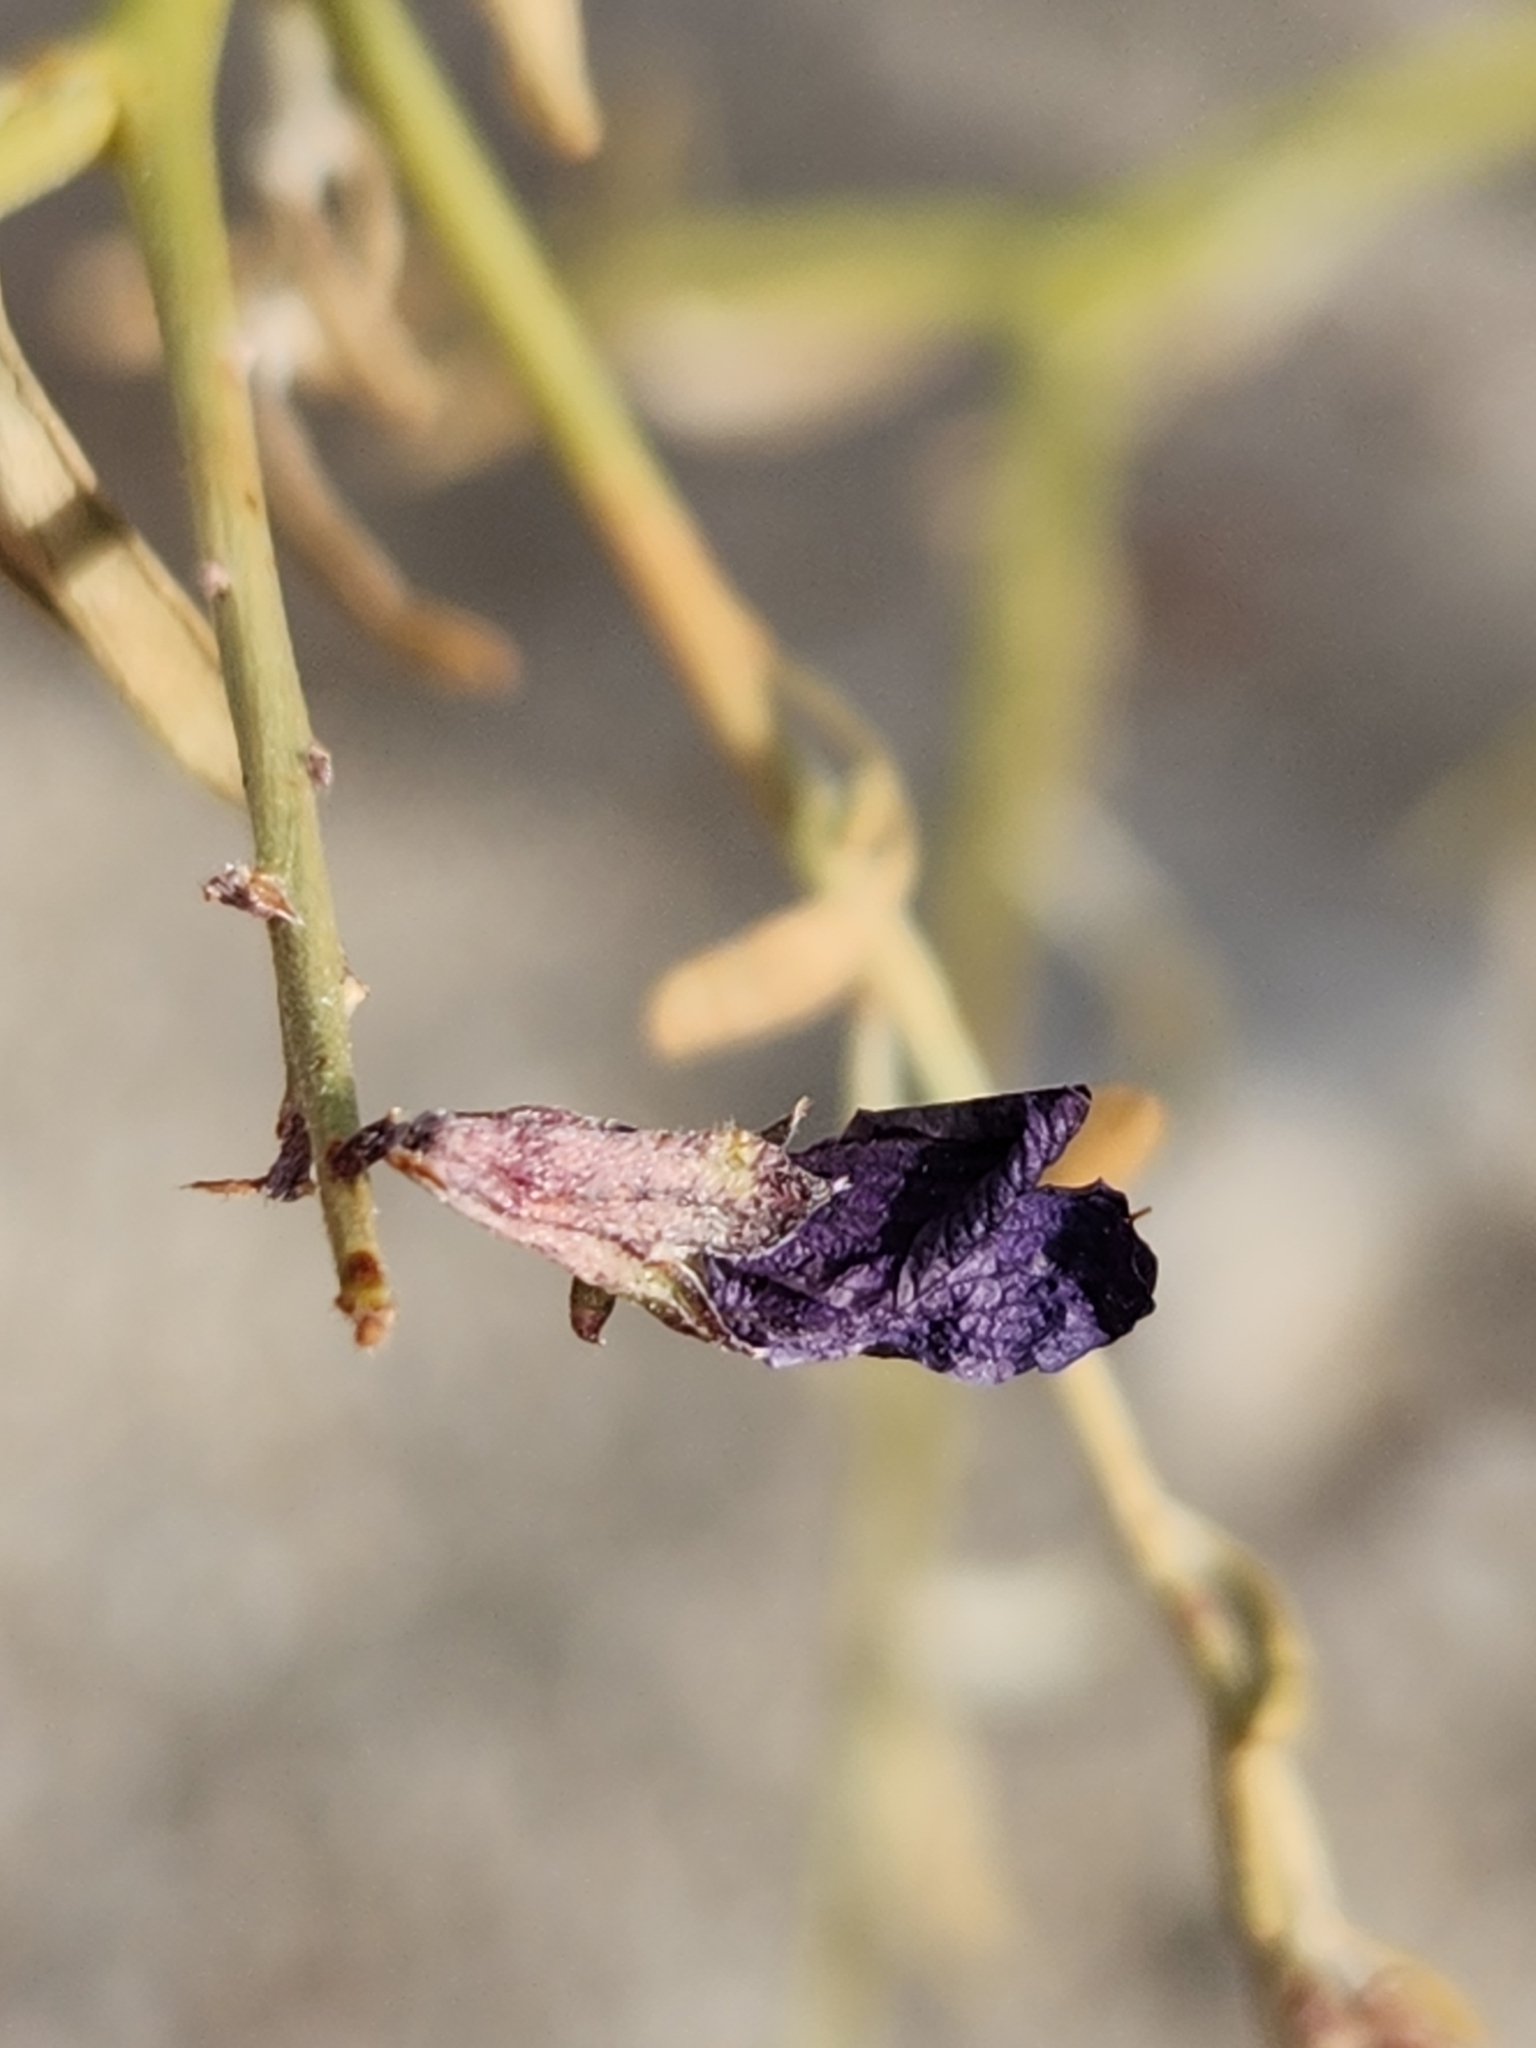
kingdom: Plantae
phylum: Tracheophyta
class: Magnoliopsida
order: Fabales
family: Fabaceae
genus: Psorothamnus
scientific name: Psorothamnus arborescens
